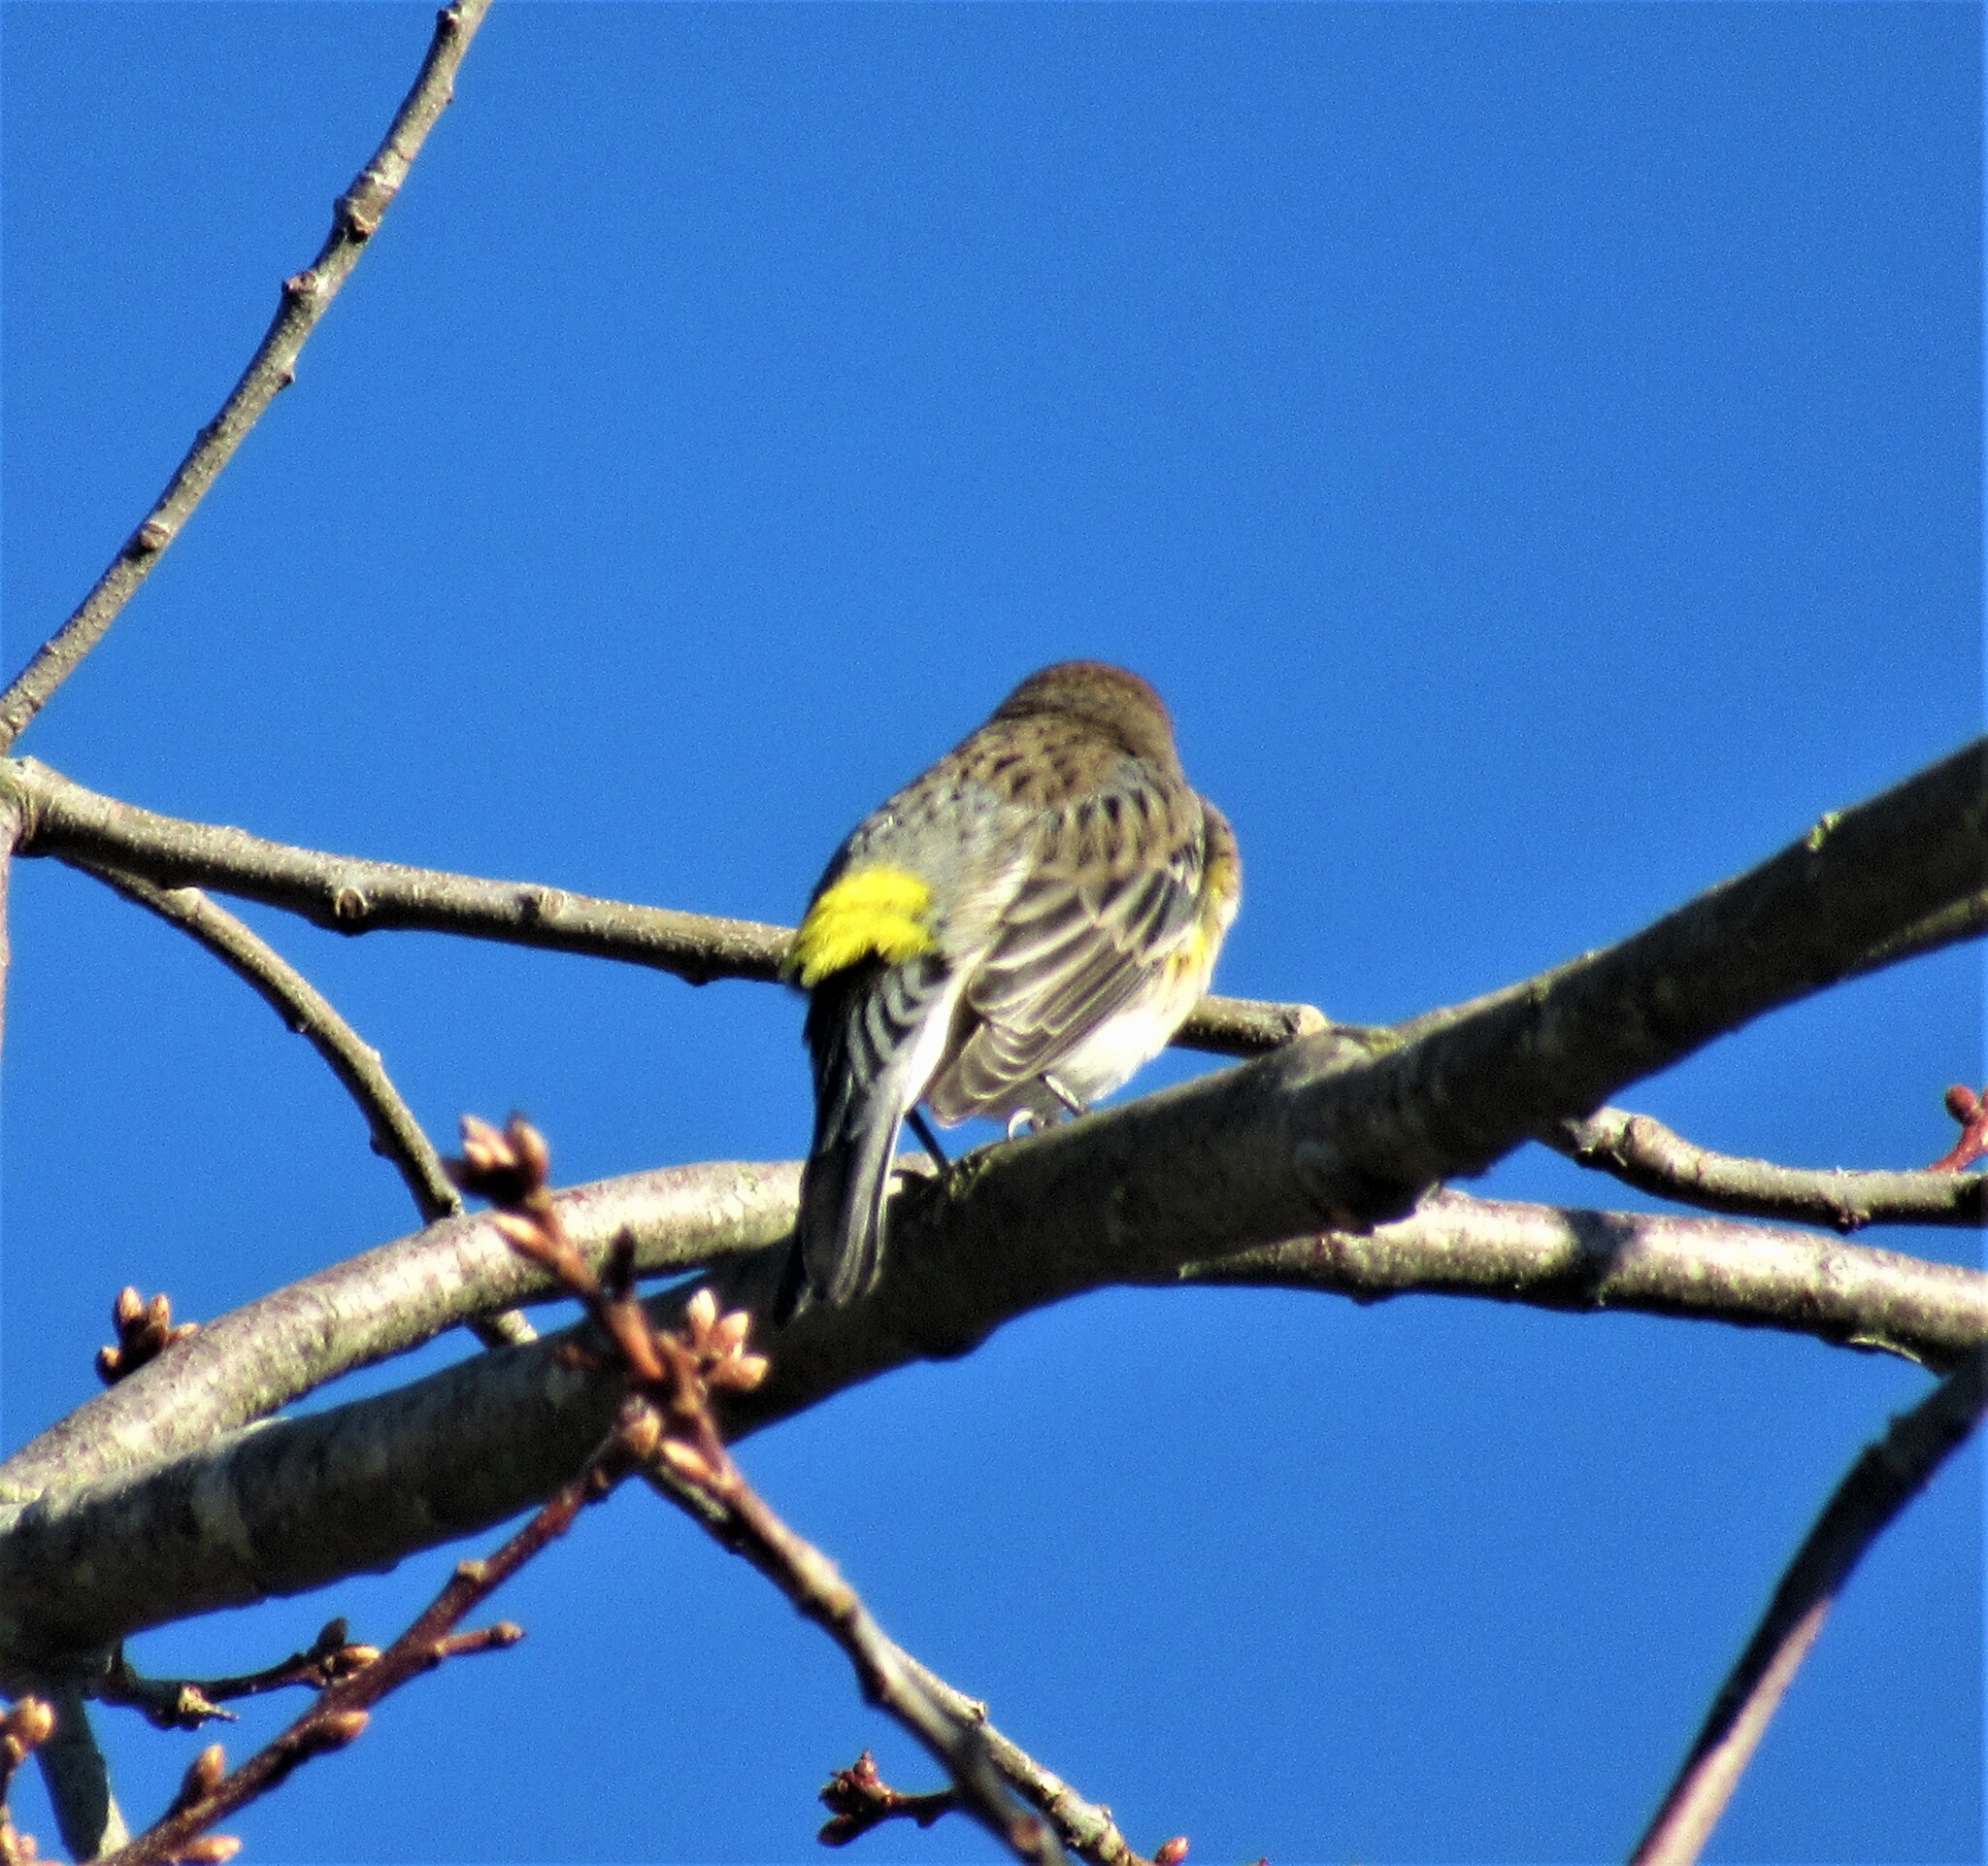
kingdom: Animalia
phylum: Chordata
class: Aves
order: Passeriformes
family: Parulidae
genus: Setophaga
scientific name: Setophaga coronata
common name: Myrtle warbler
